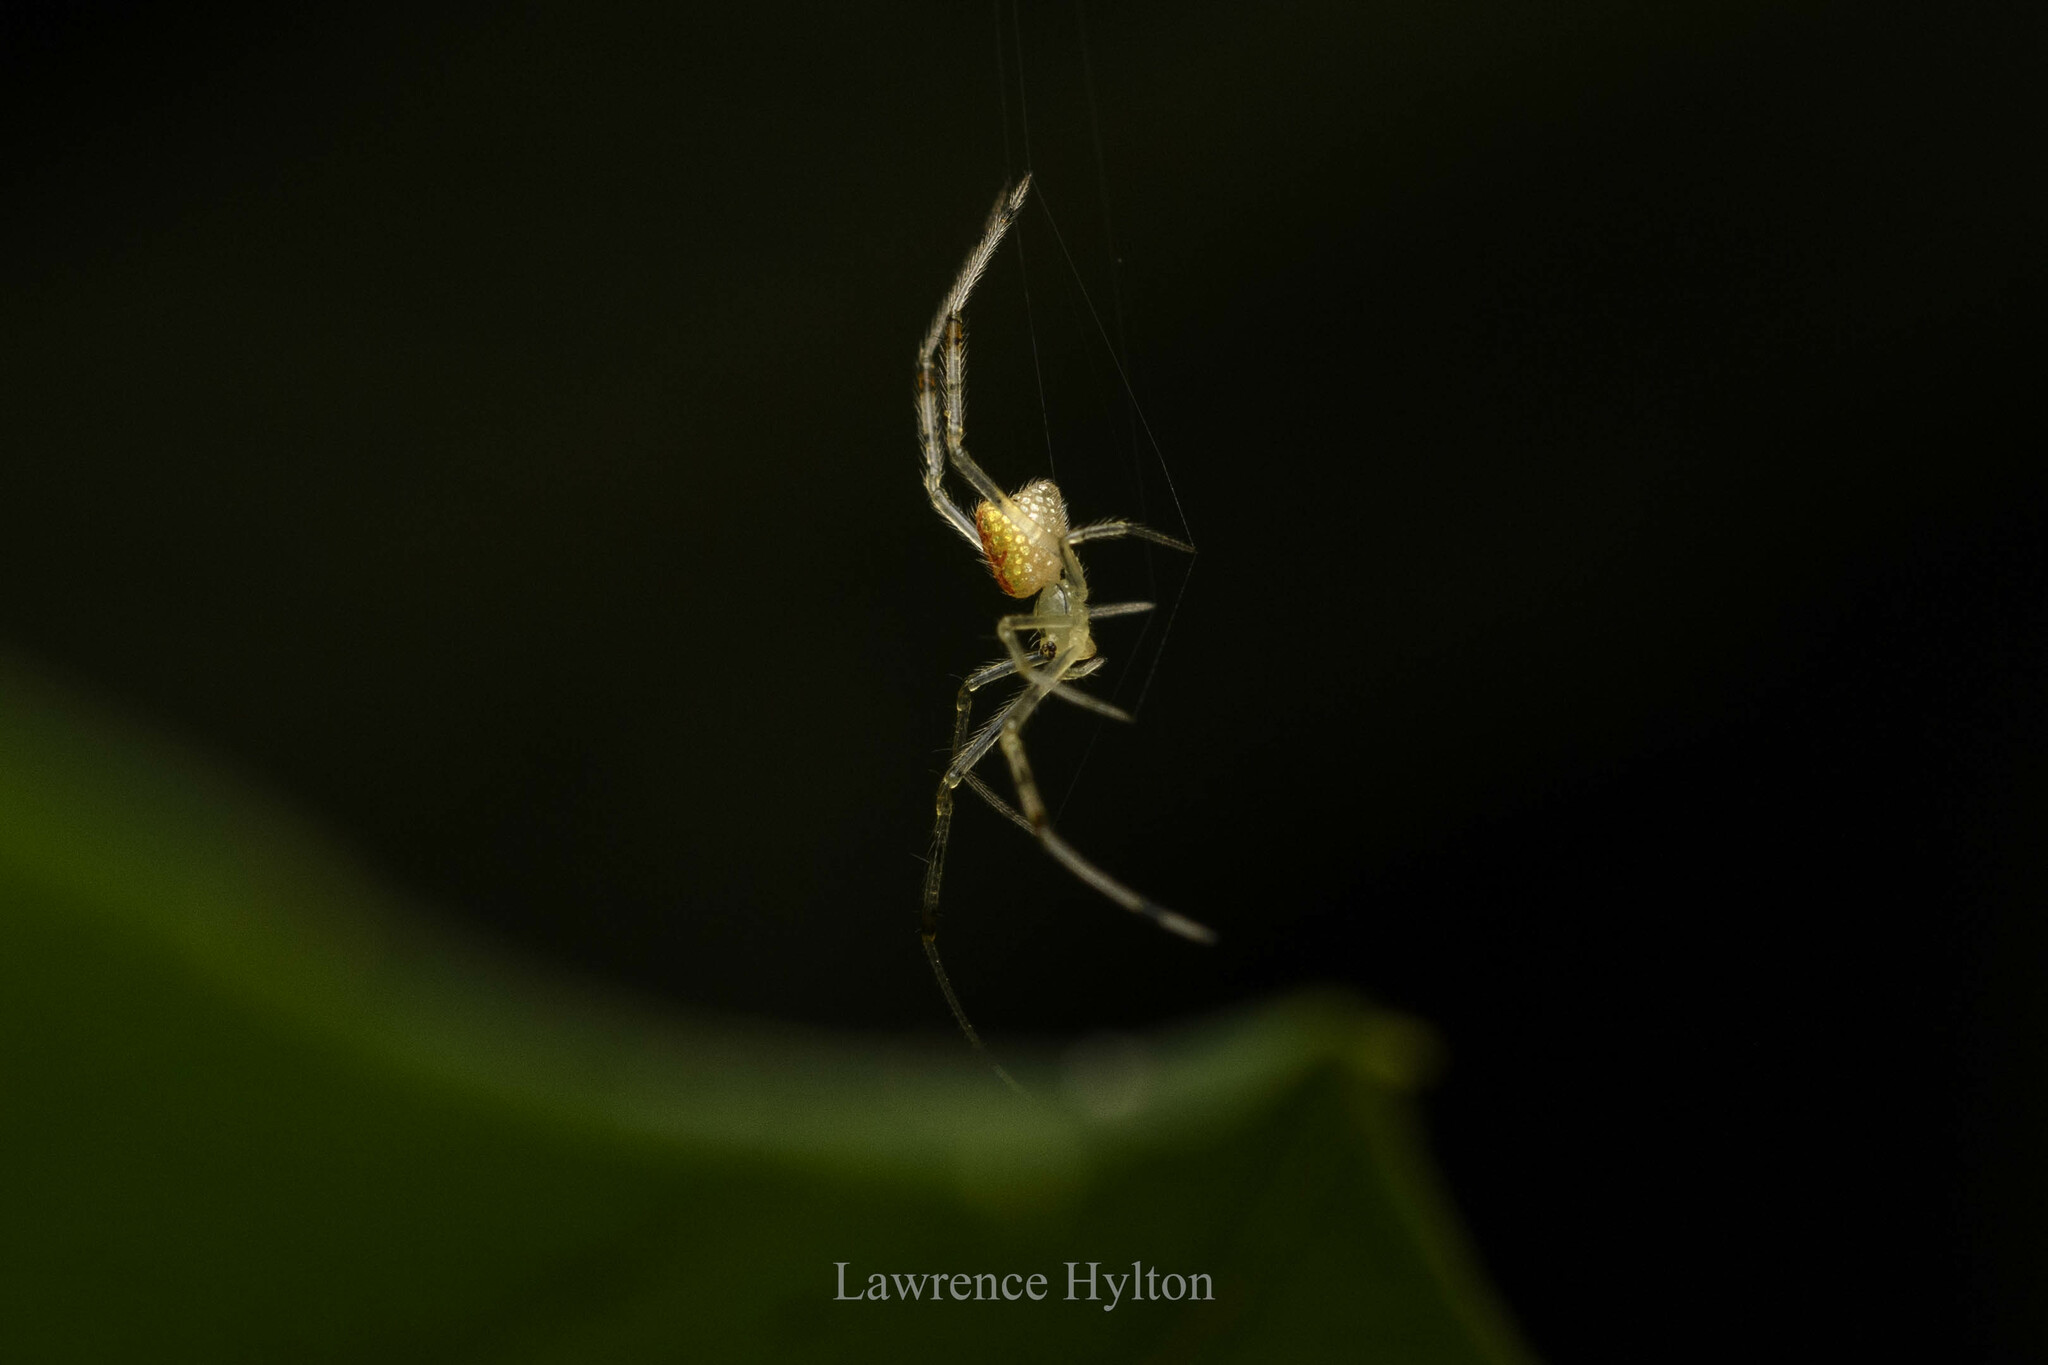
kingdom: Animalia
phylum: Arthropoda
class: Arachnida
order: Araneae
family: Theridiidae
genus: Thwaitesia
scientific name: Thwaitesia margaritifera
